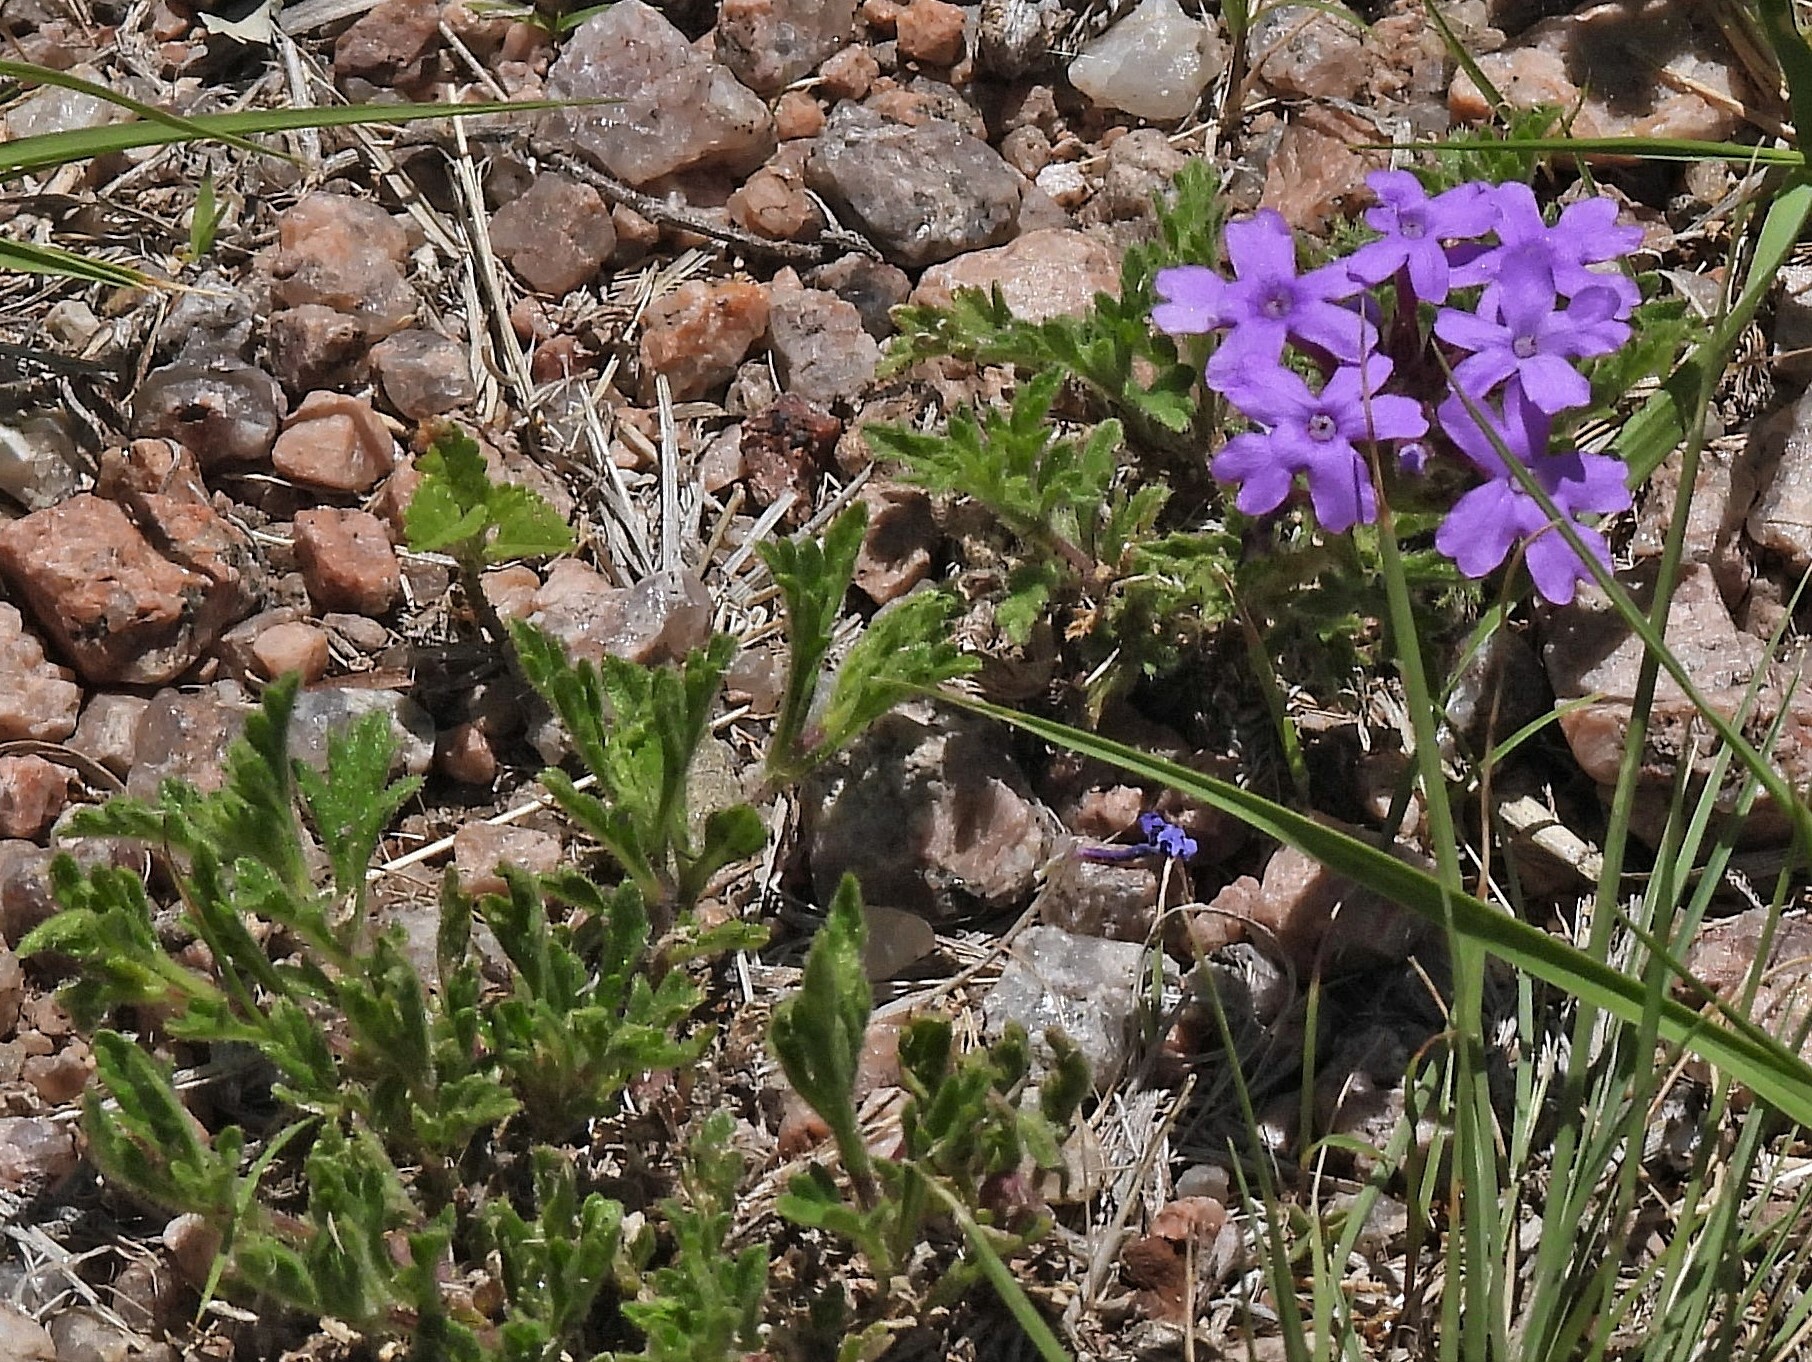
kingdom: Plantae
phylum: Tracheophyta
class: Magnoliopsida
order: Lamiales
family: Verbenaceae
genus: Verbena
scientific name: Verbena venturii
